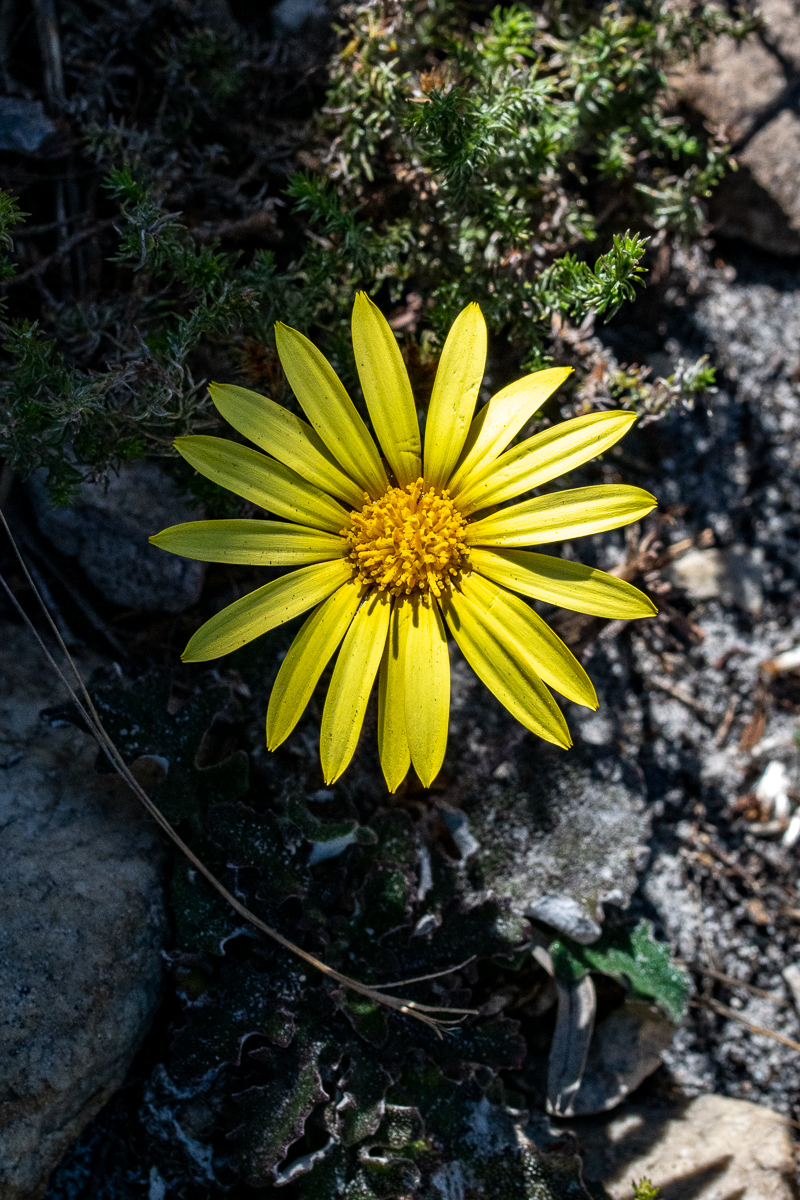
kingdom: Plantae
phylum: Tracheophyta
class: Magnoliopsida
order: Asterales
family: Asteraceae
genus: Haplocarpha
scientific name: Haplocarpha lanata
